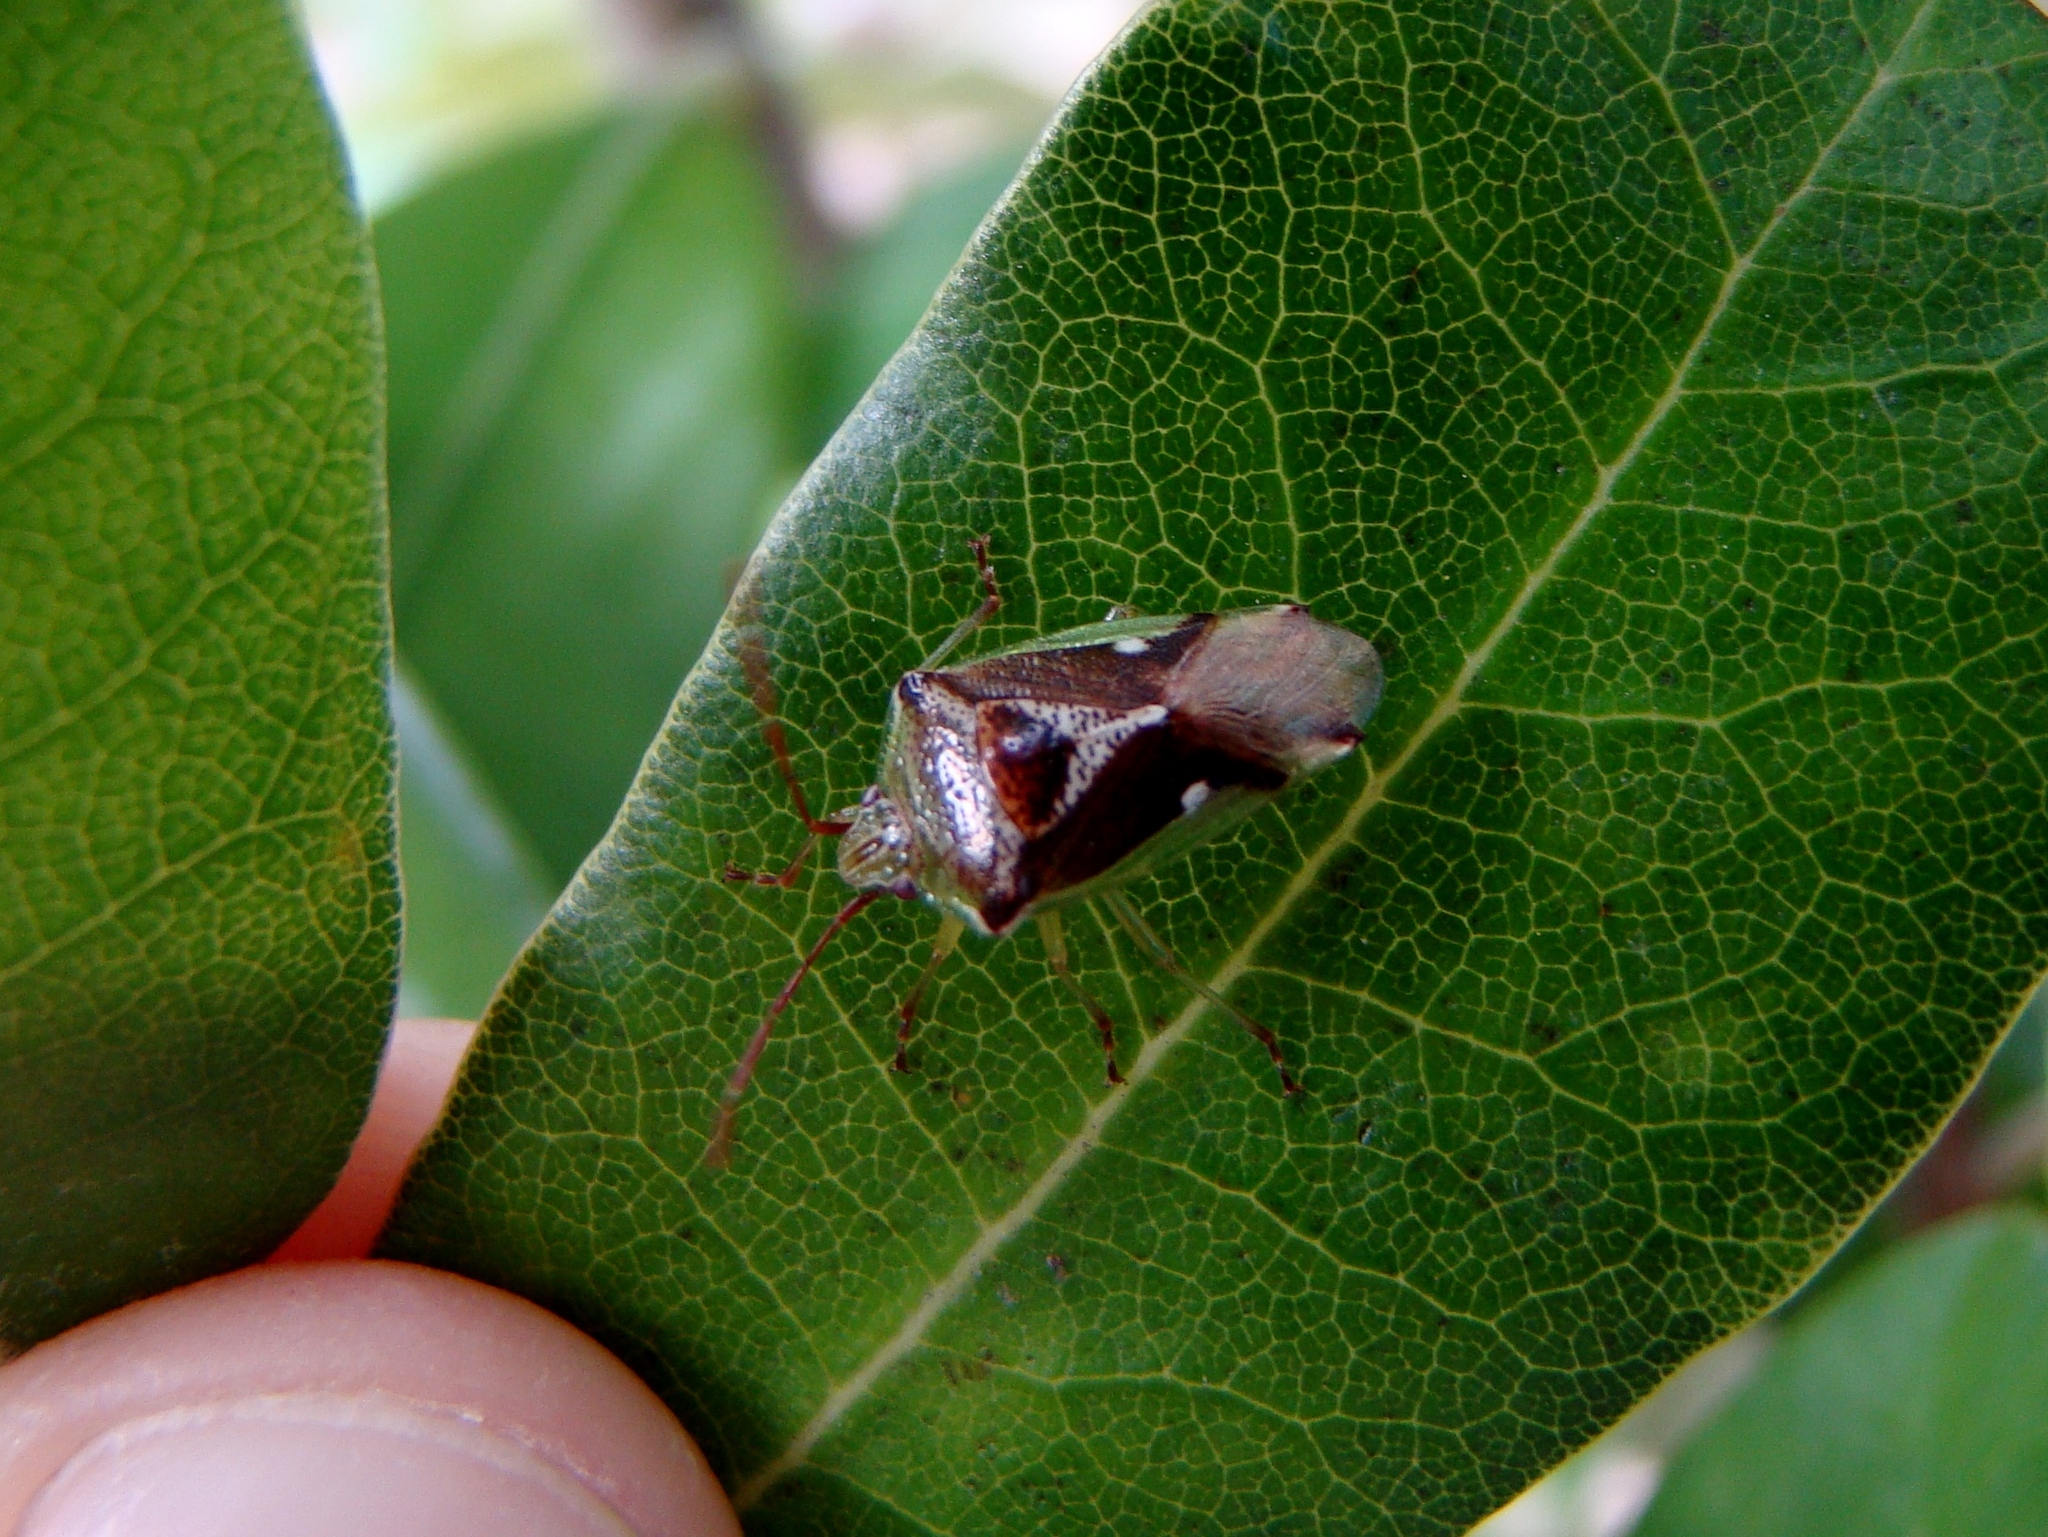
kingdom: Animalia
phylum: Arthropoda
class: Insecta
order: Hemiptera
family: Acanthosomatidae
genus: Oncacontias
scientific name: Oncacontias vittatus
